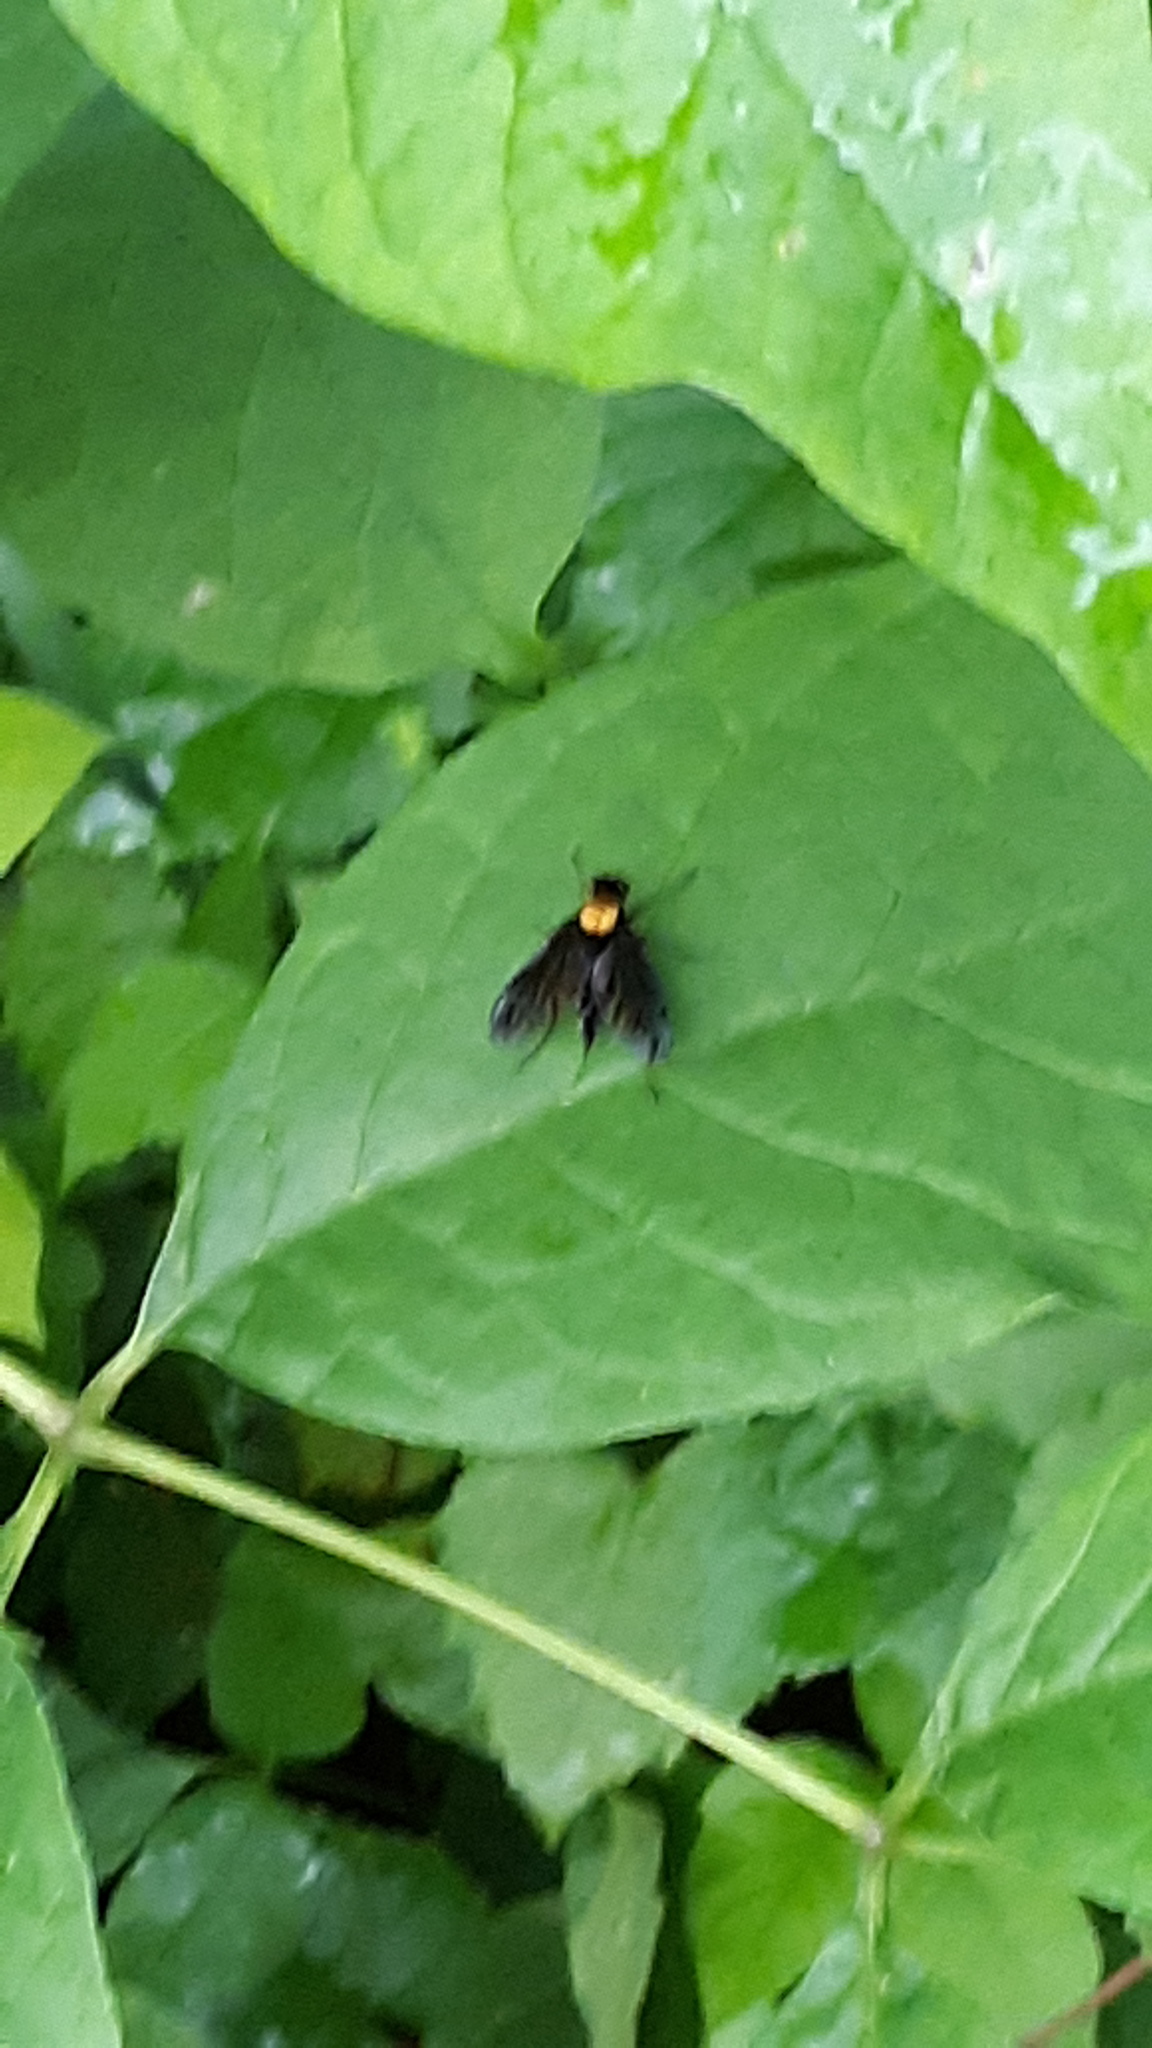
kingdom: Animalia
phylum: Arthropoda
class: Insecta
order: Diptera
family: Rhagionidae
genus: Chrysopilus
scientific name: Chrysopilus thoracicus
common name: Golden-backed snipe fly
